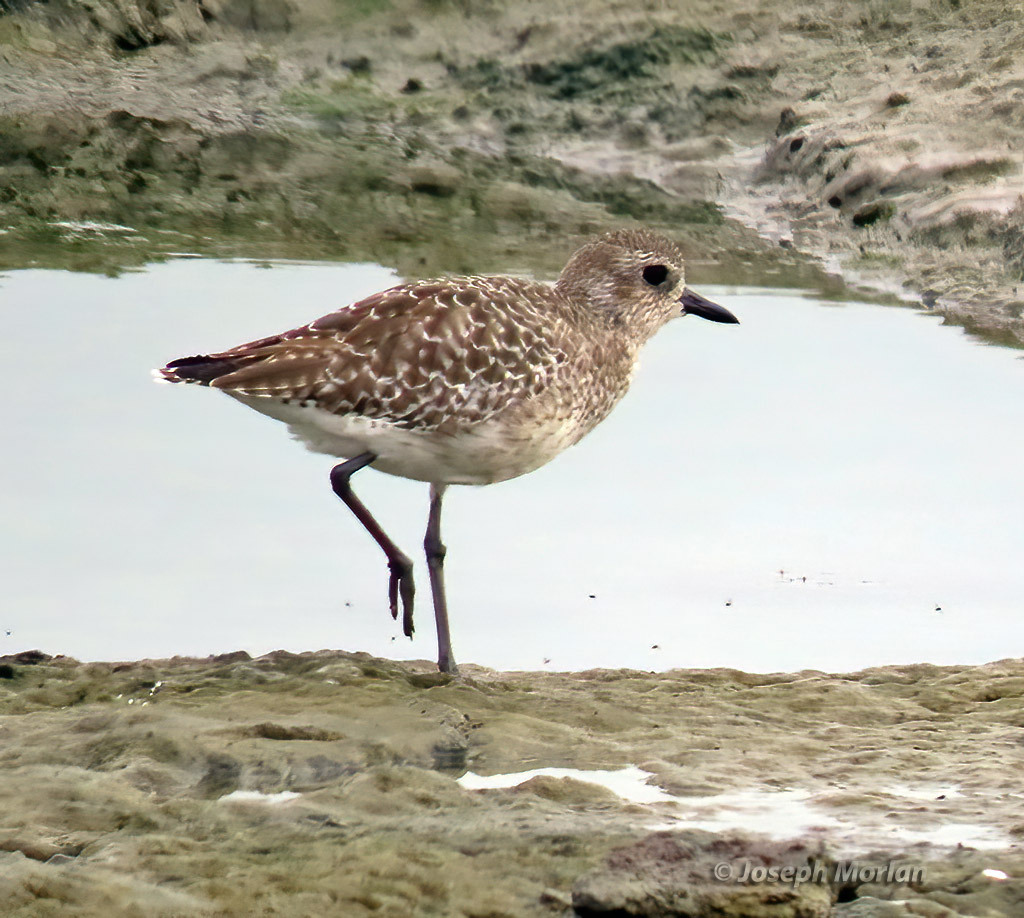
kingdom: Animalia
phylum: Chordata
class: Aves
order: Charadriiformes
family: Charadriidae
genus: Pluvialis
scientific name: Pluvialis squatarola
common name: Grey plover
